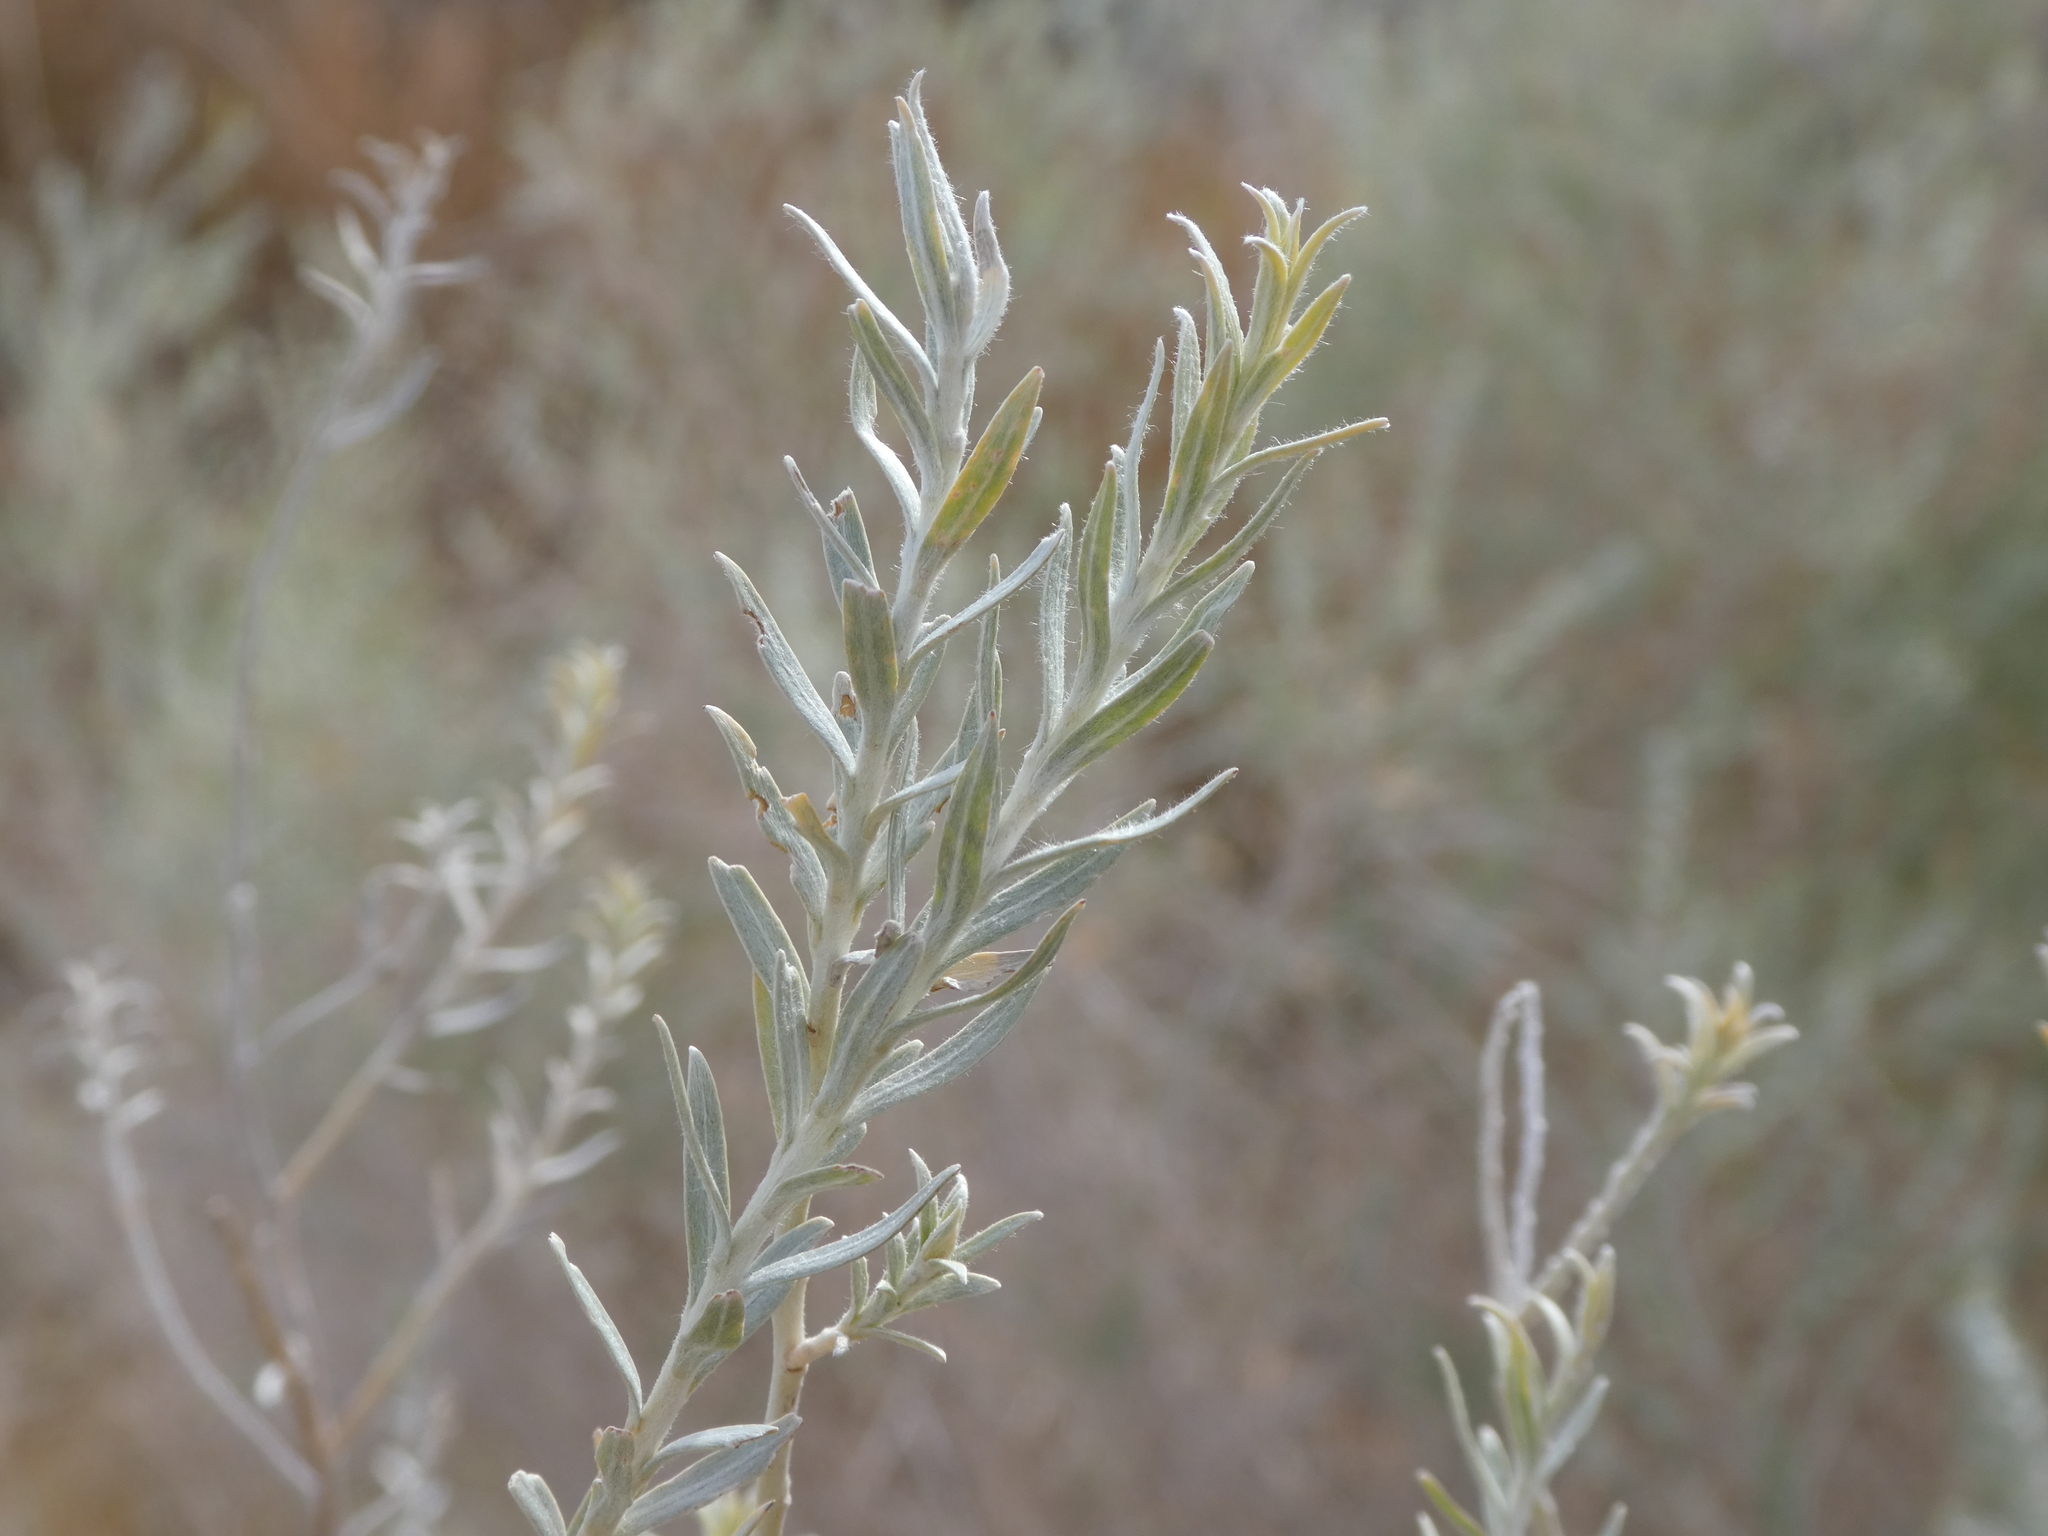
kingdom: Plantae
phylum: Tracheophyta
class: Magnoliopsida
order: Asterales
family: Asteraceae
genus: Pluchea
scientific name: Pluchea sericea
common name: Arrow-weed
